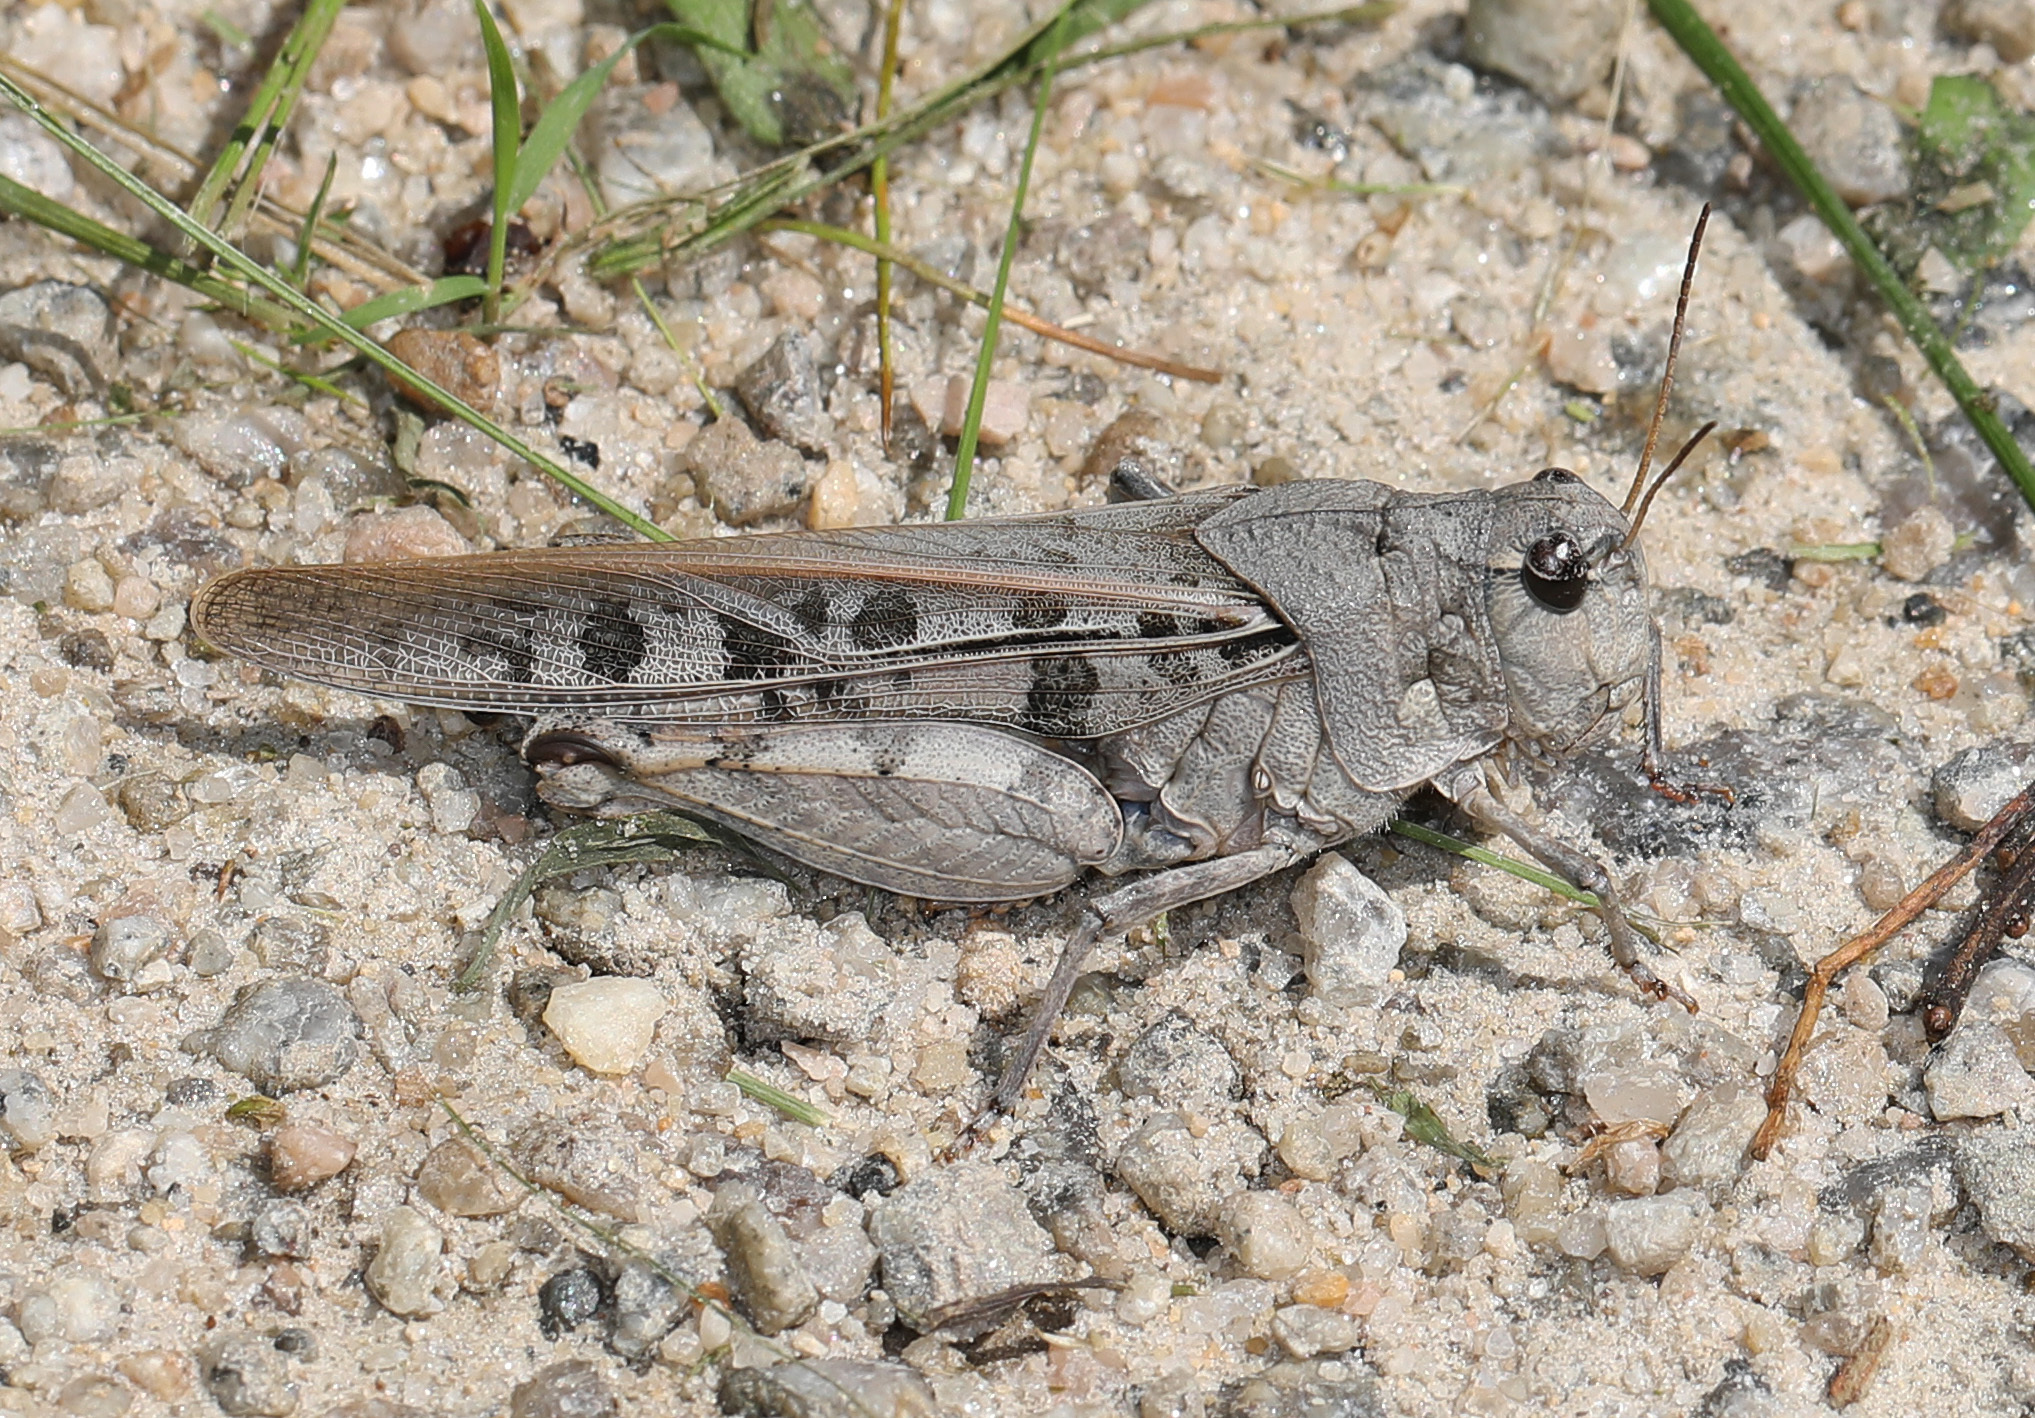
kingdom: Animalia
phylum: Arthropoda
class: Insecta
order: Orthoptera
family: Acrididae
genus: Pardalophora
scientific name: Pardalophora phoenicoptera
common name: Orange-winged grasshopper
